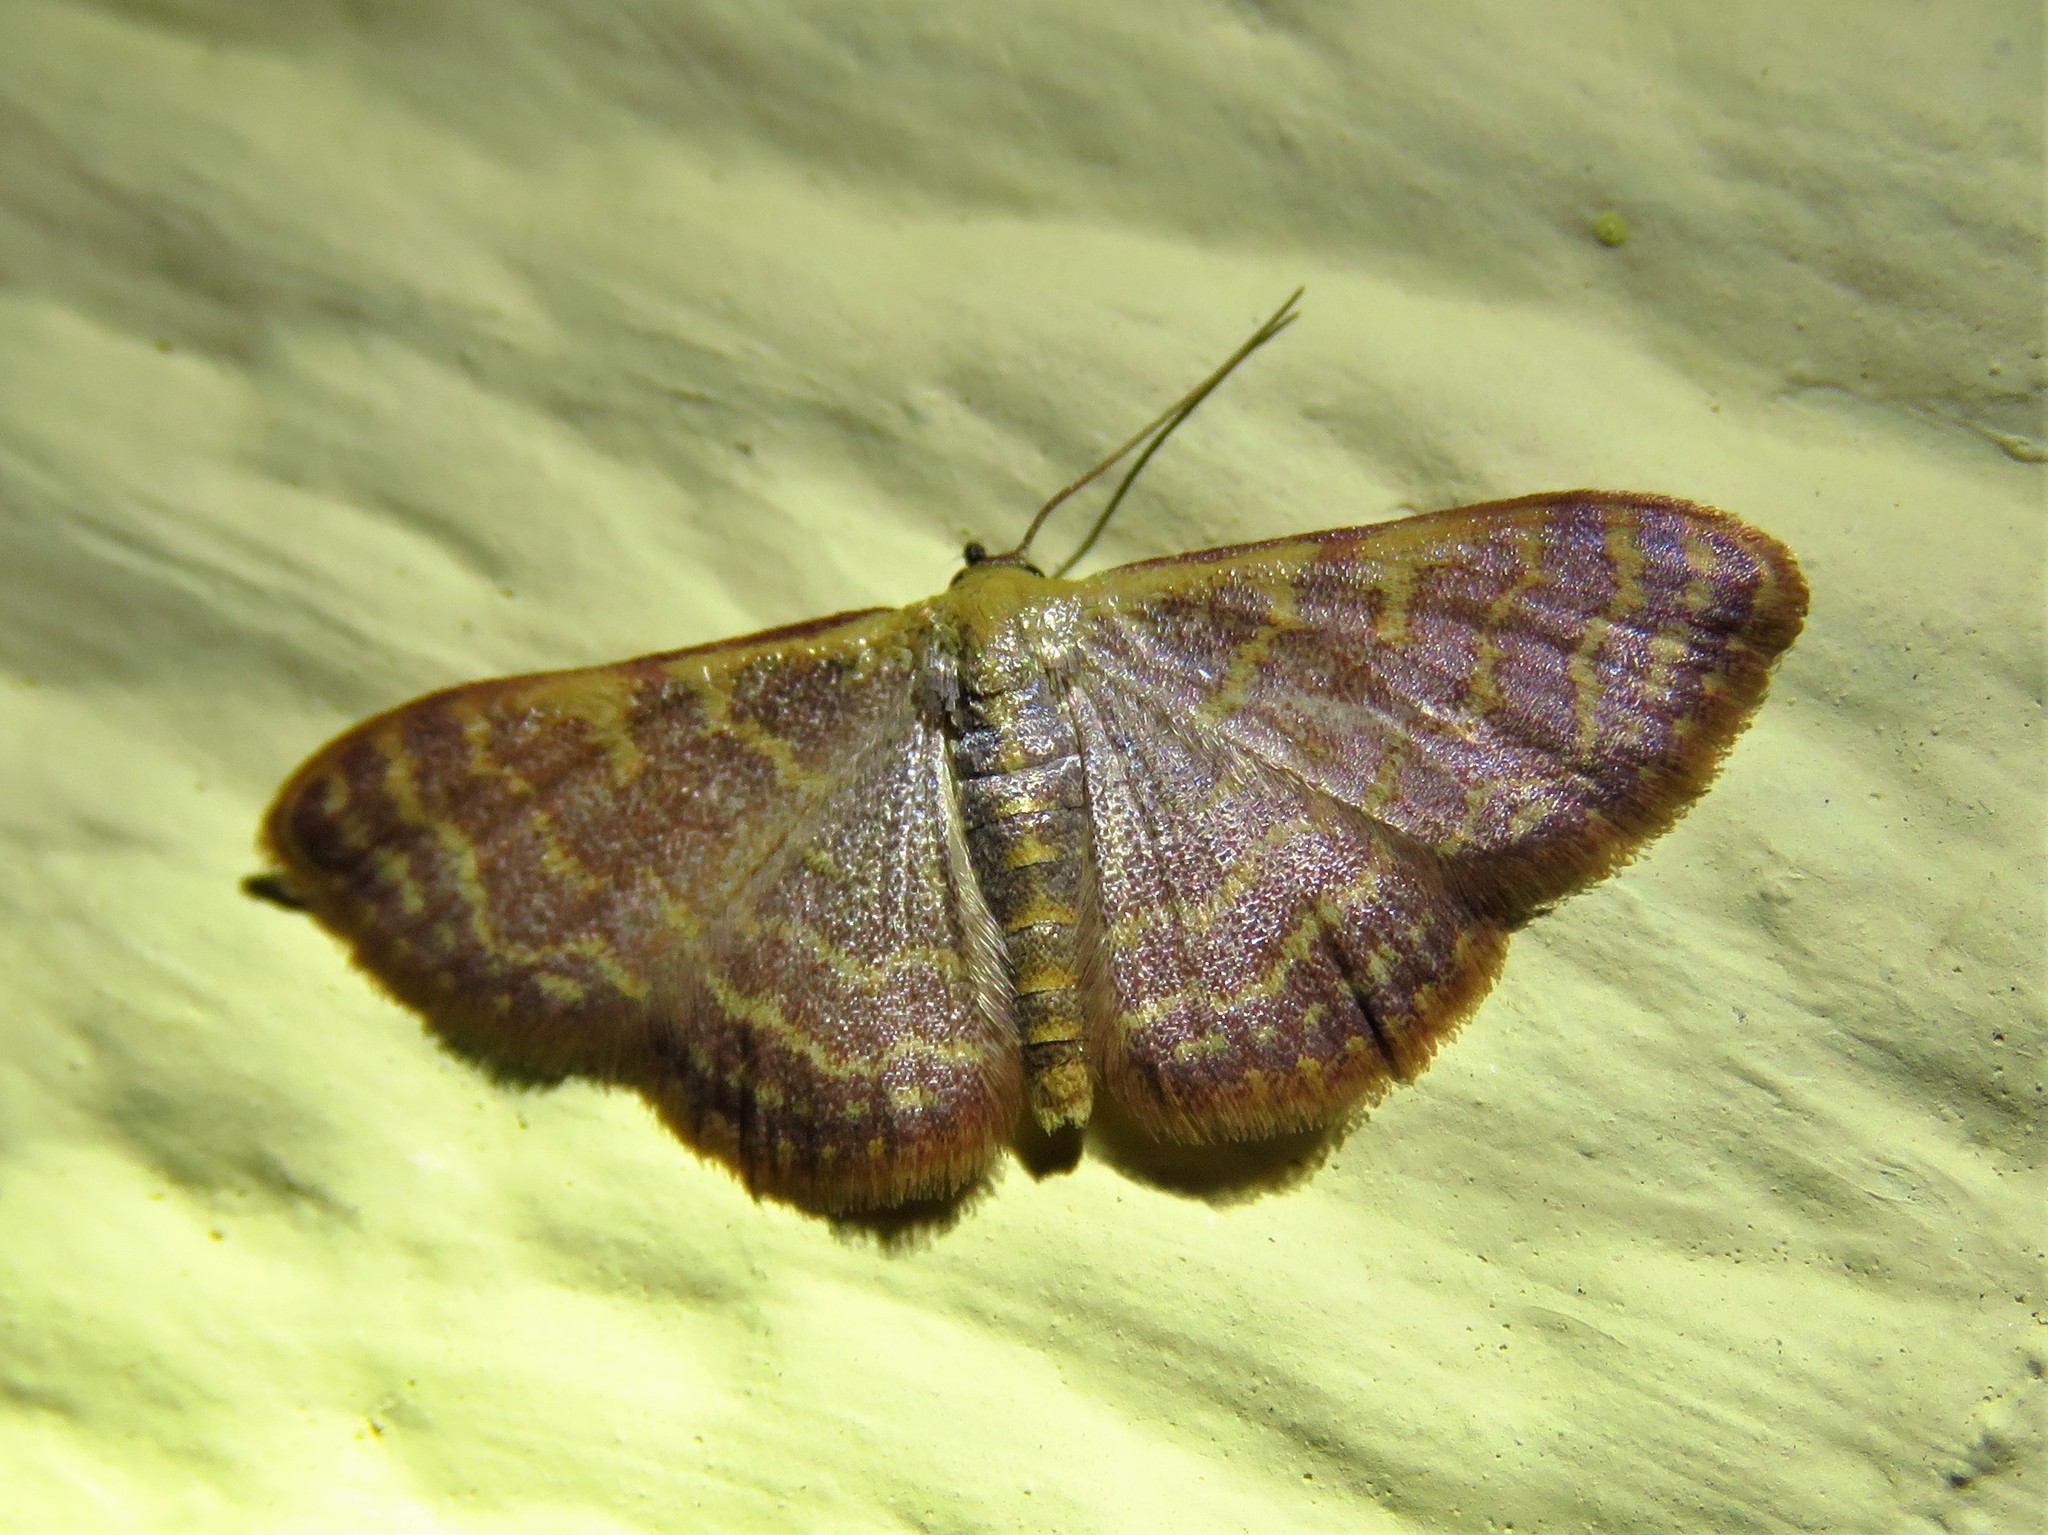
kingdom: Animalia
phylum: Arthropoda
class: Insecta
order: Lepidoptera
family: Geometridae
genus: Leptostales
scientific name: Leptostales pannaria
